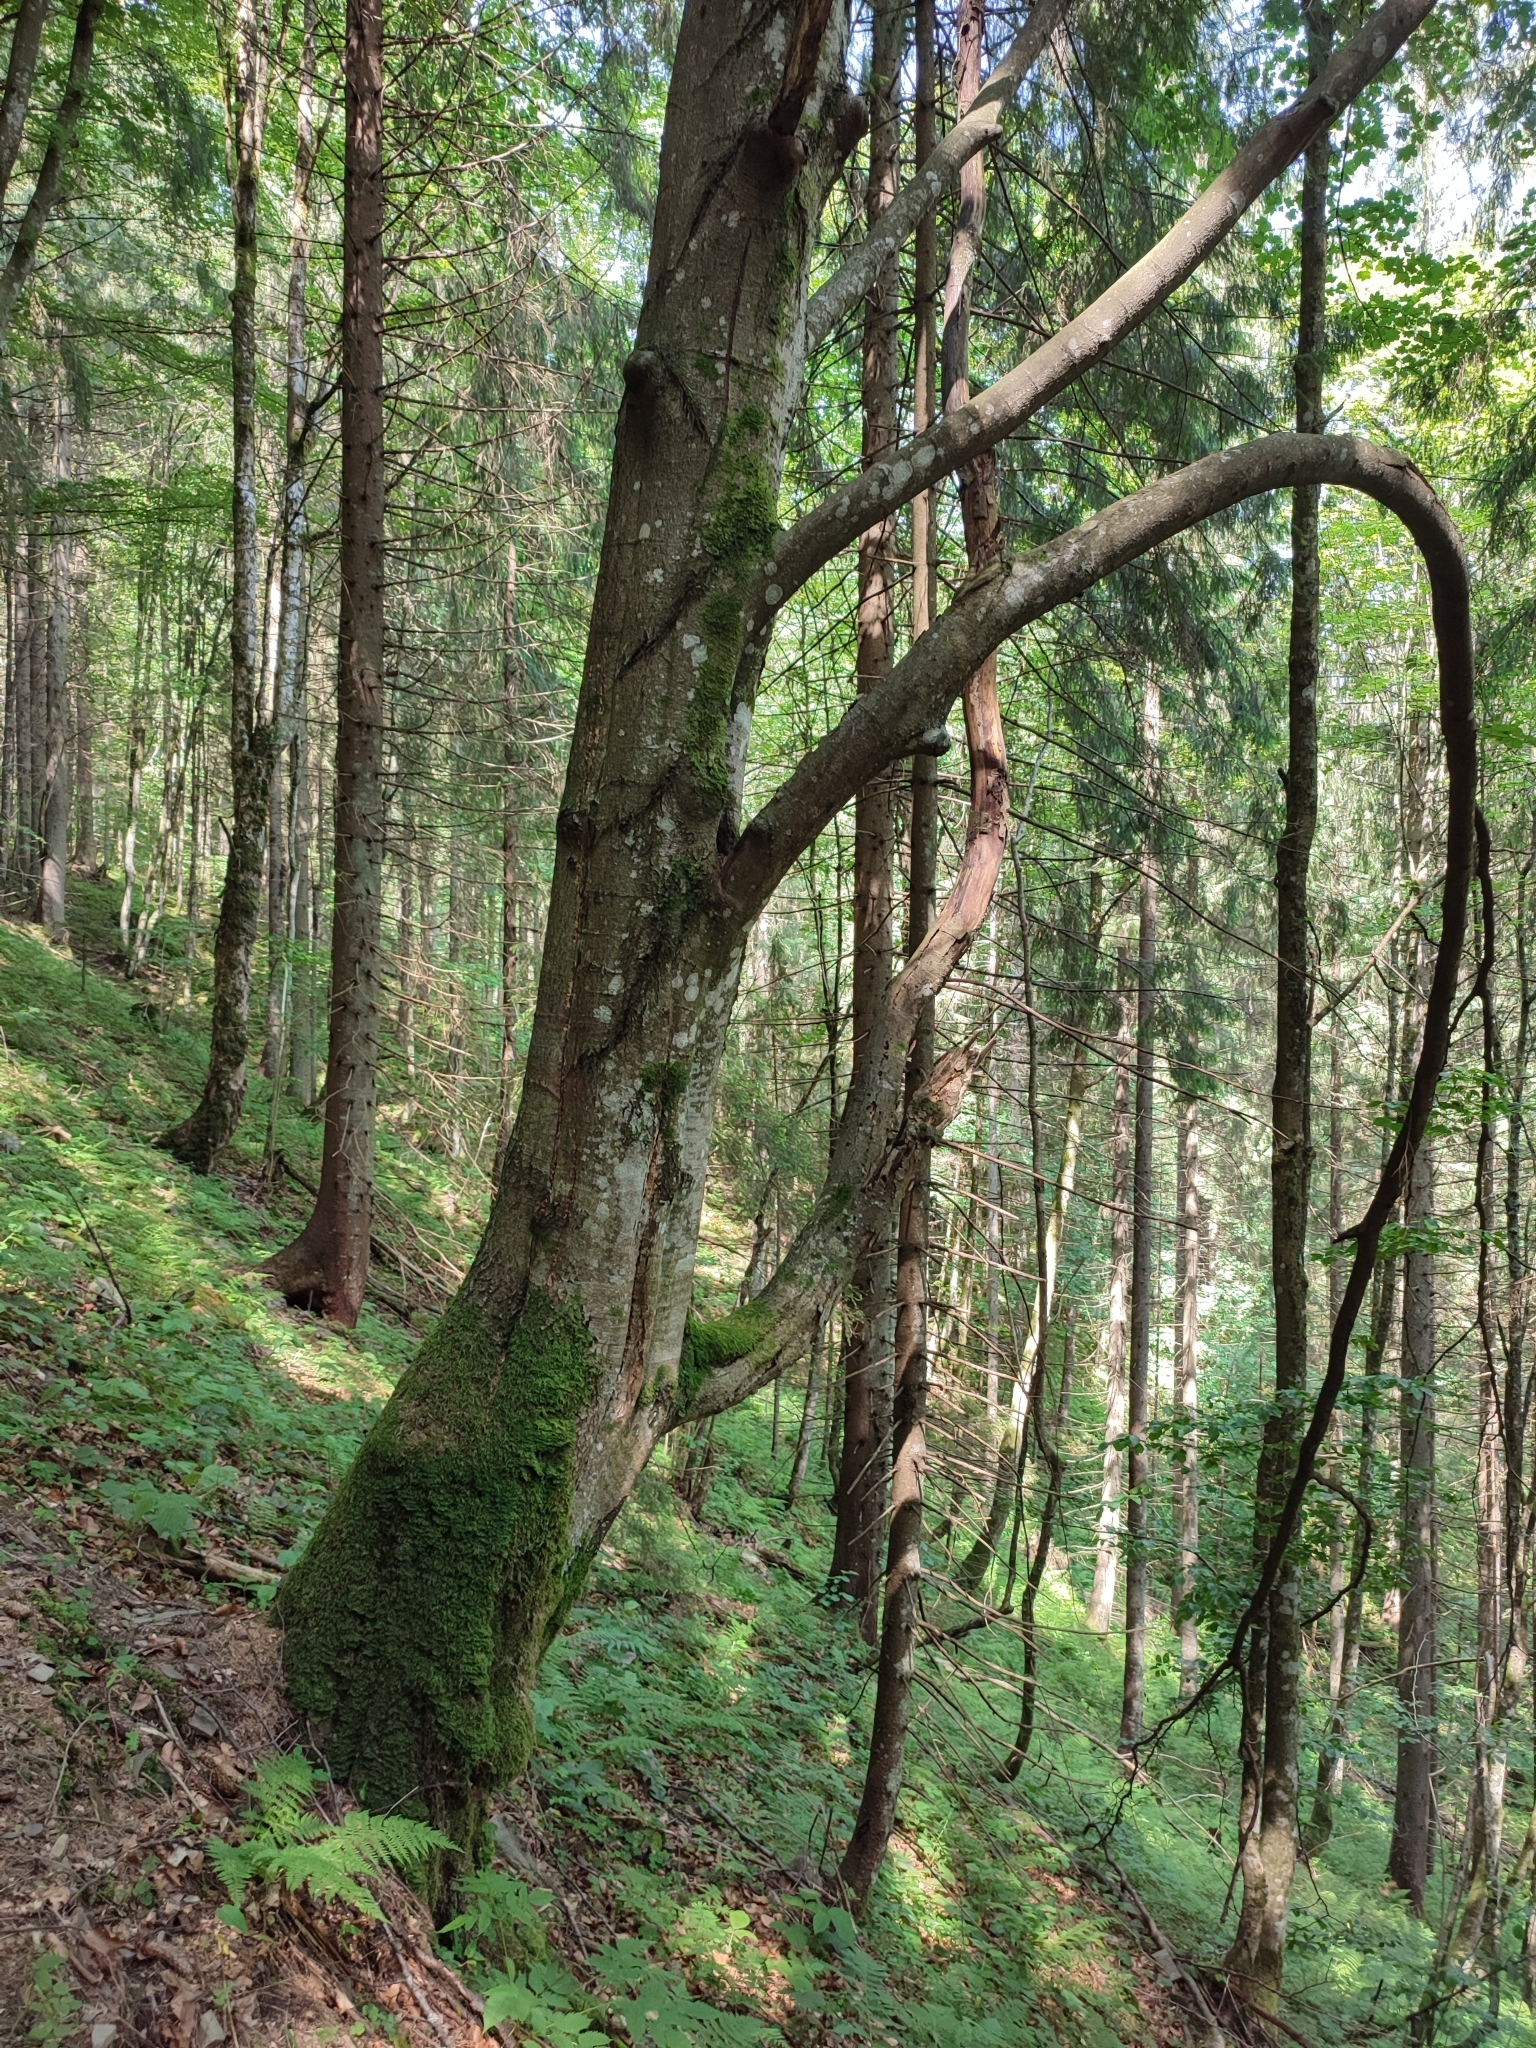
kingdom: Plantae
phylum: Tracheophyta
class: Magnoliopsida
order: Fagales
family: Fagaceae
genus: Fagus
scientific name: Fagus sylvatica
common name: Beech
